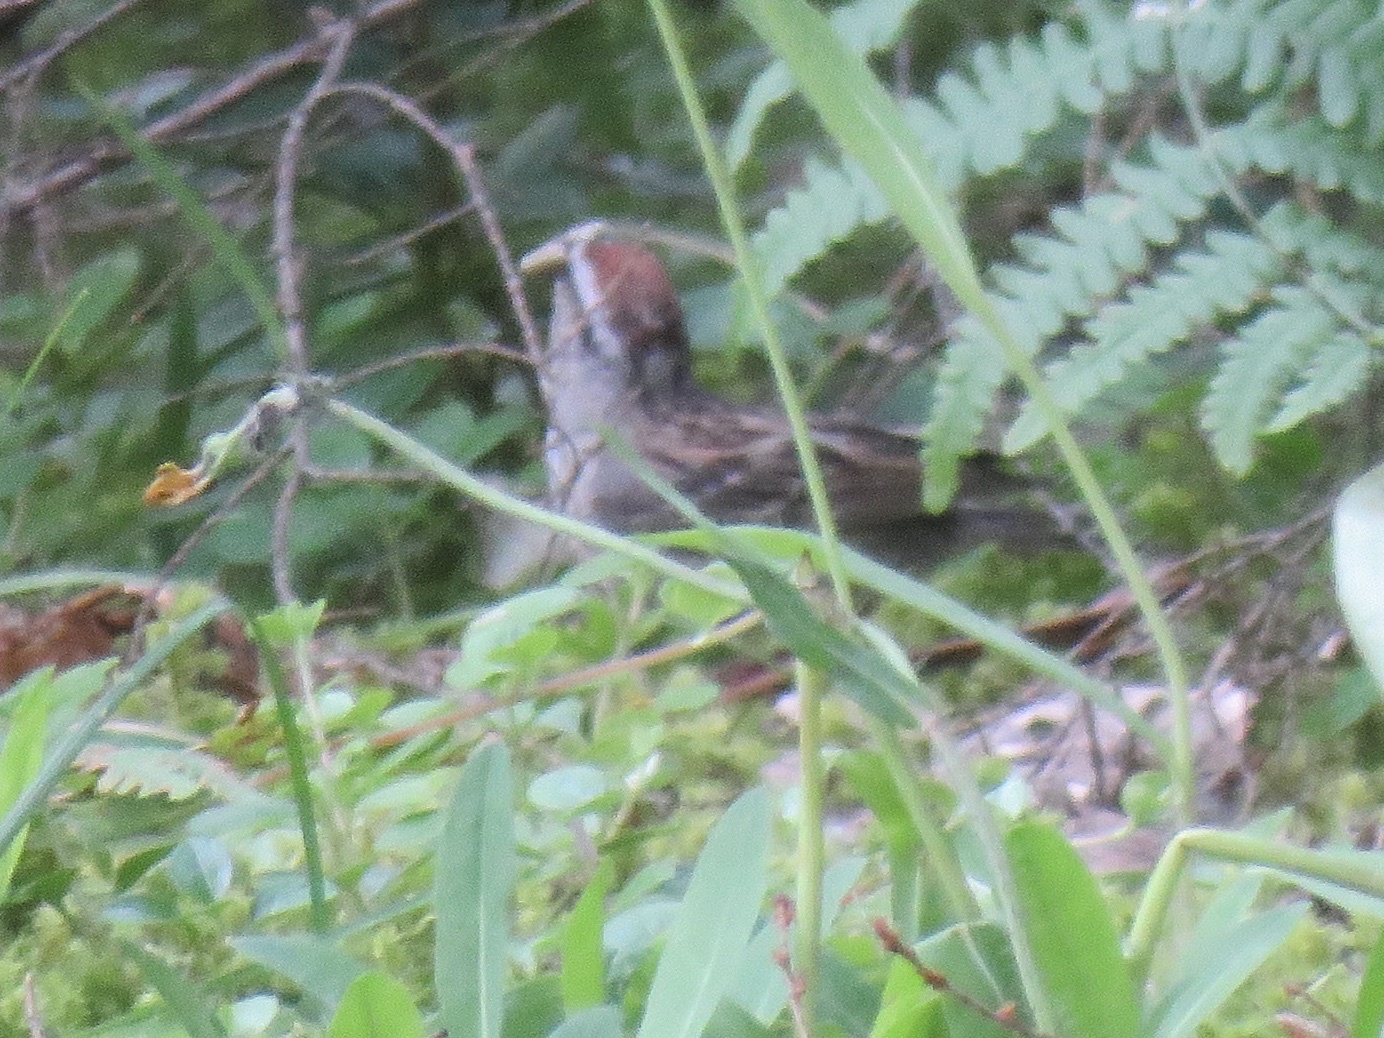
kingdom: Animalia
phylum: Chordata
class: Aves
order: Passeriformes
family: Passerellidae
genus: Spizella
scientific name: Spizella passerina
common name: Chipping sparrow
